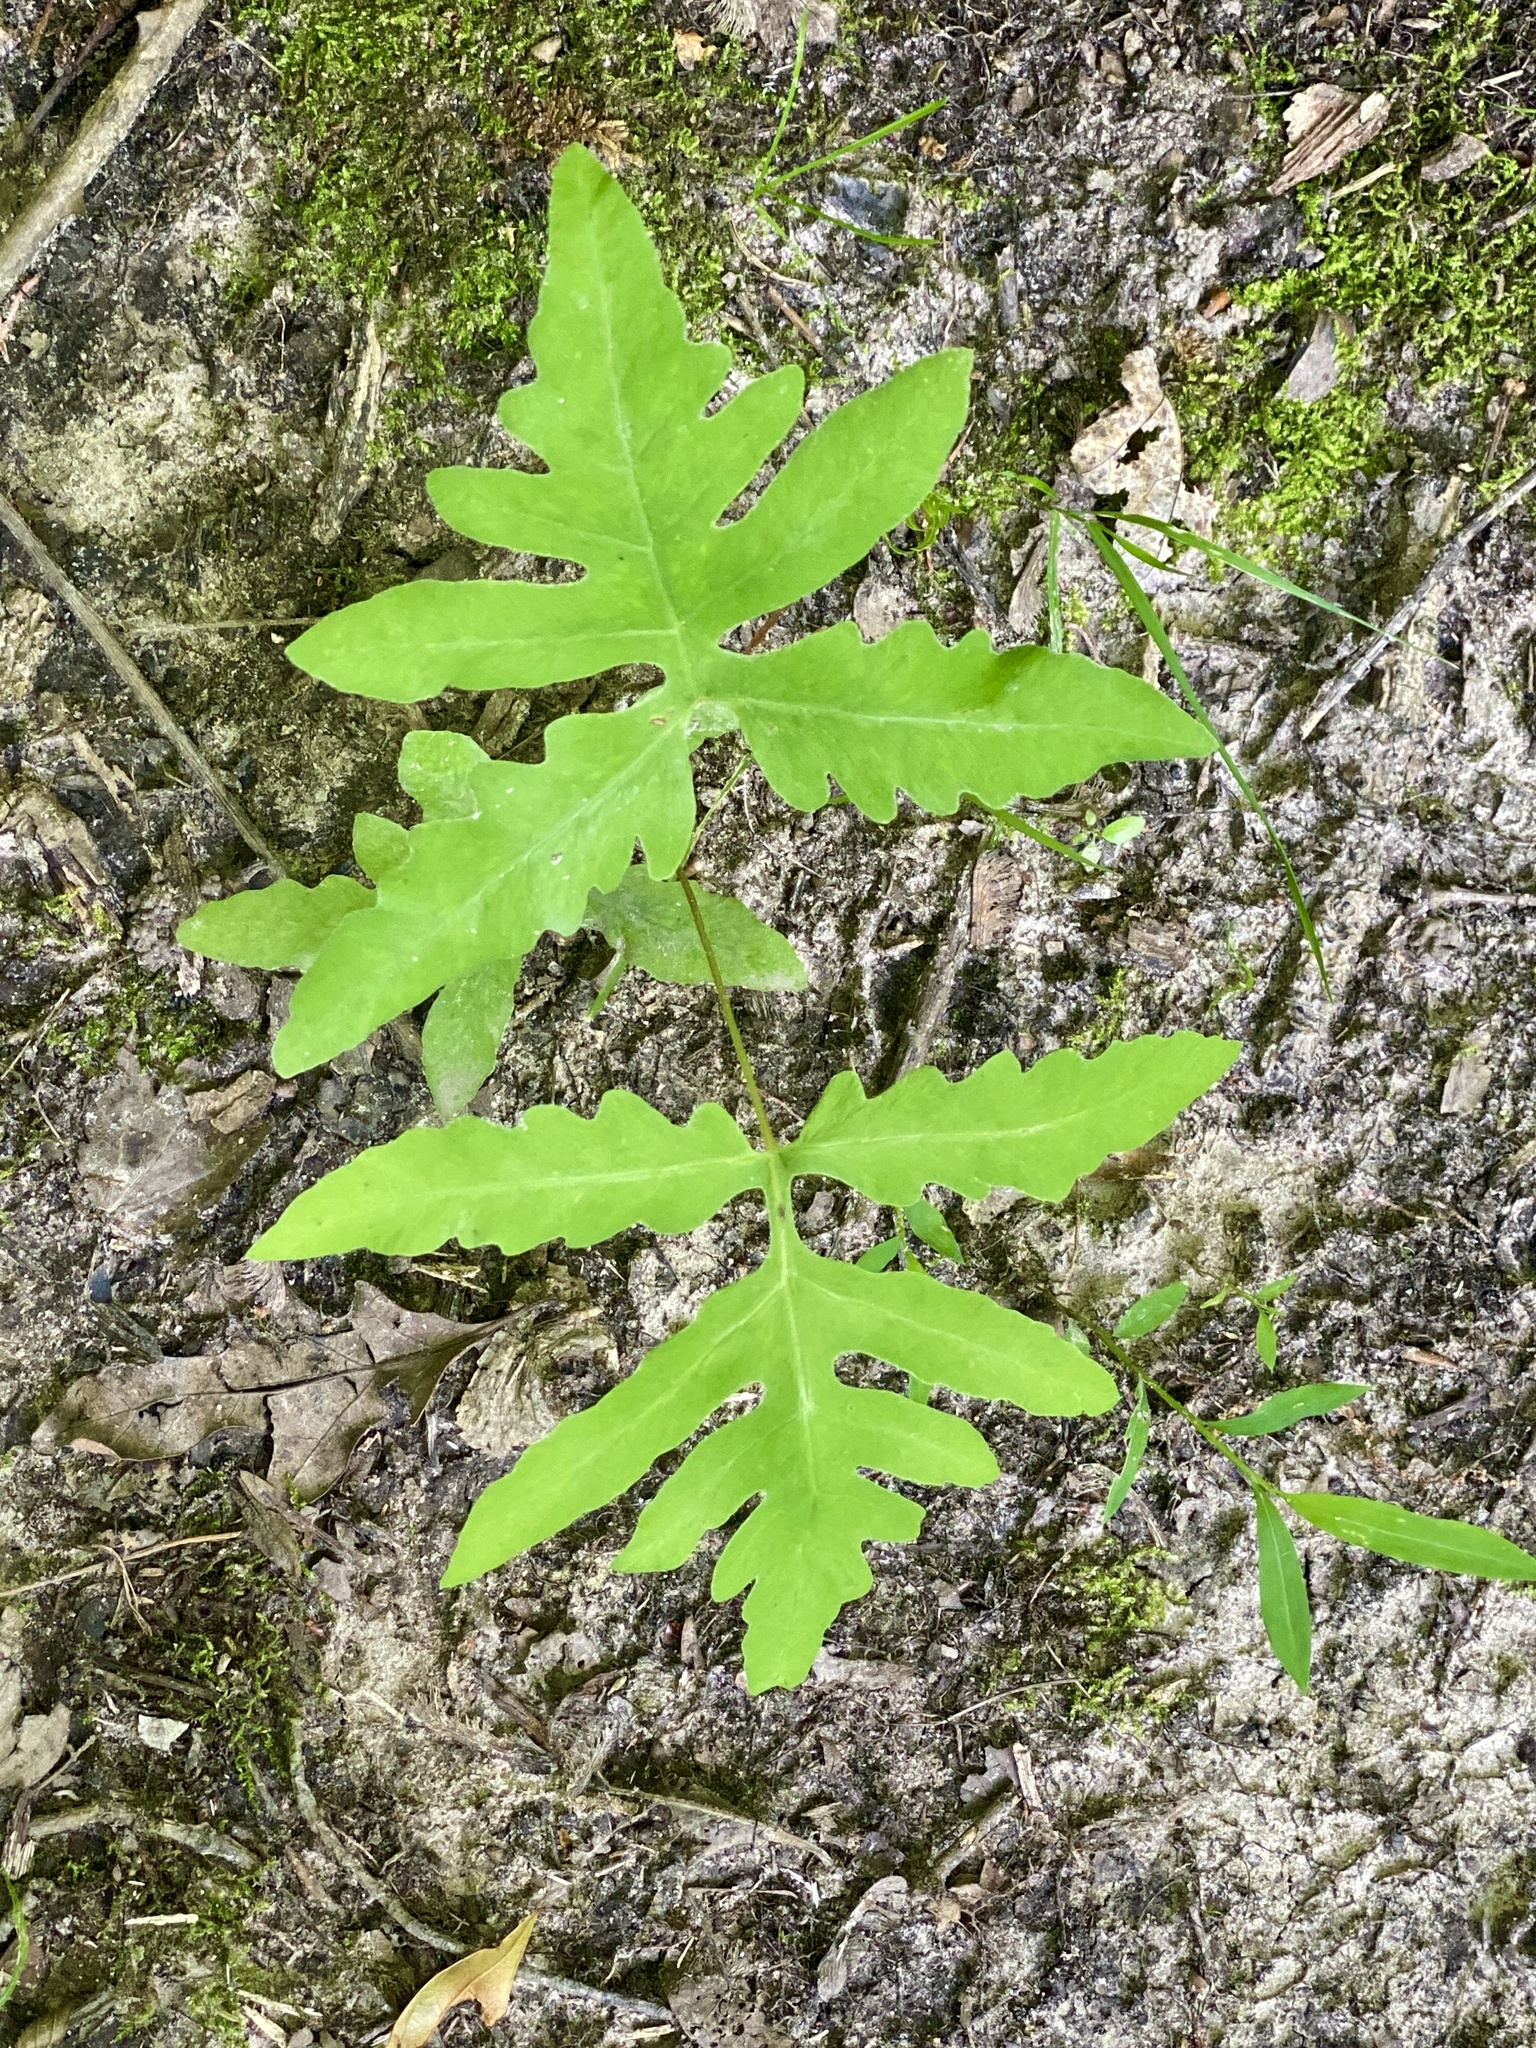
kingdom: Plantae
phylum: Tracheophyta
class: Polypodiopsida
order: Polypodiales
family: Onocleaceae
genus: Onoclea
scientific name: Onoclea sensibilis
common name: Sensitive fern
